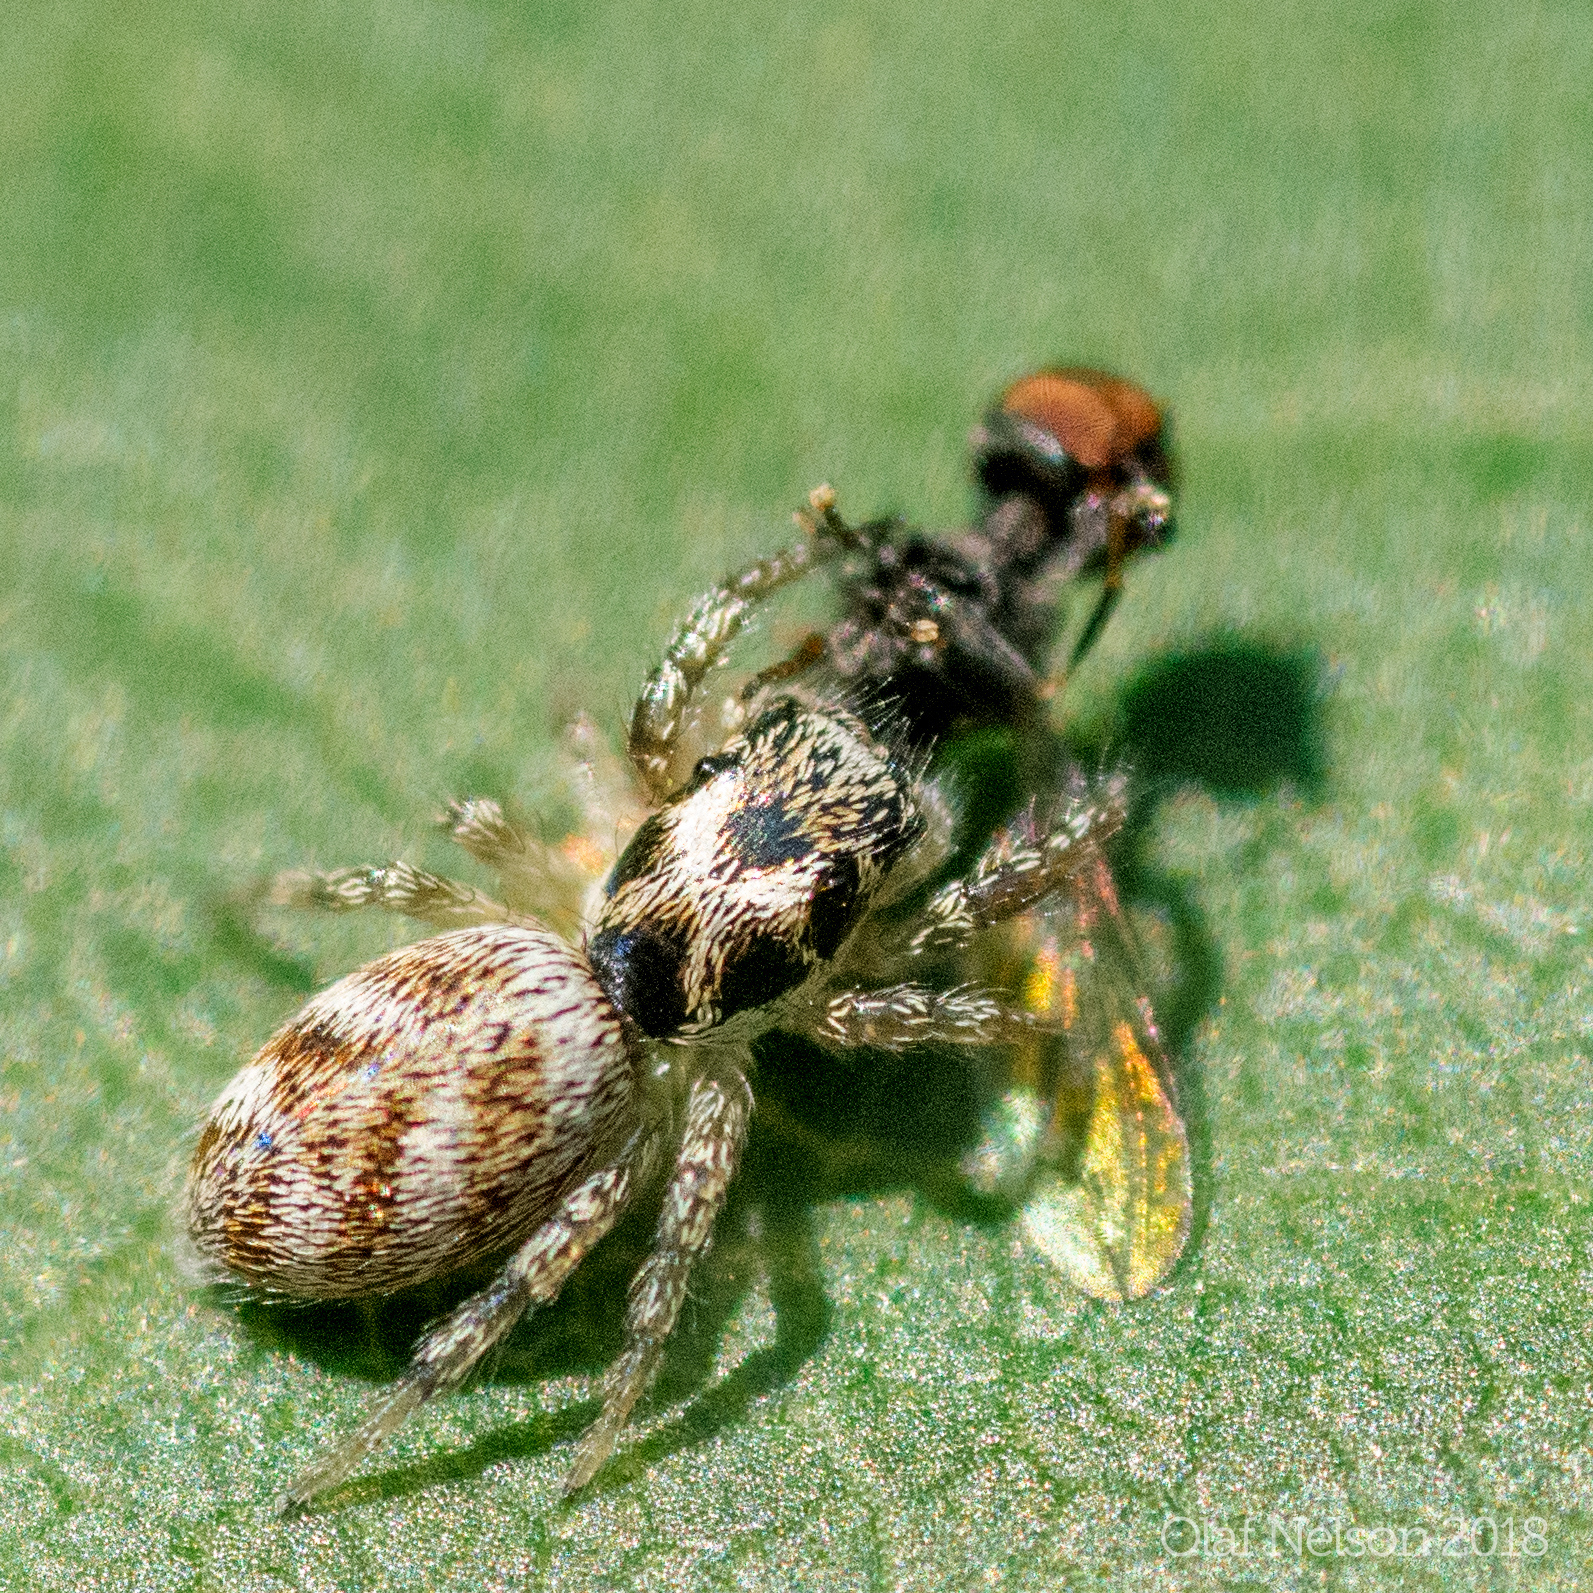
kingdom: Animalia
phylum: Arthropoda
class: Arachnida
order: Araneae
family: Salticidae
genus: Salticus
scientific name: Salticus scenicus
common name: Zebra jumper
